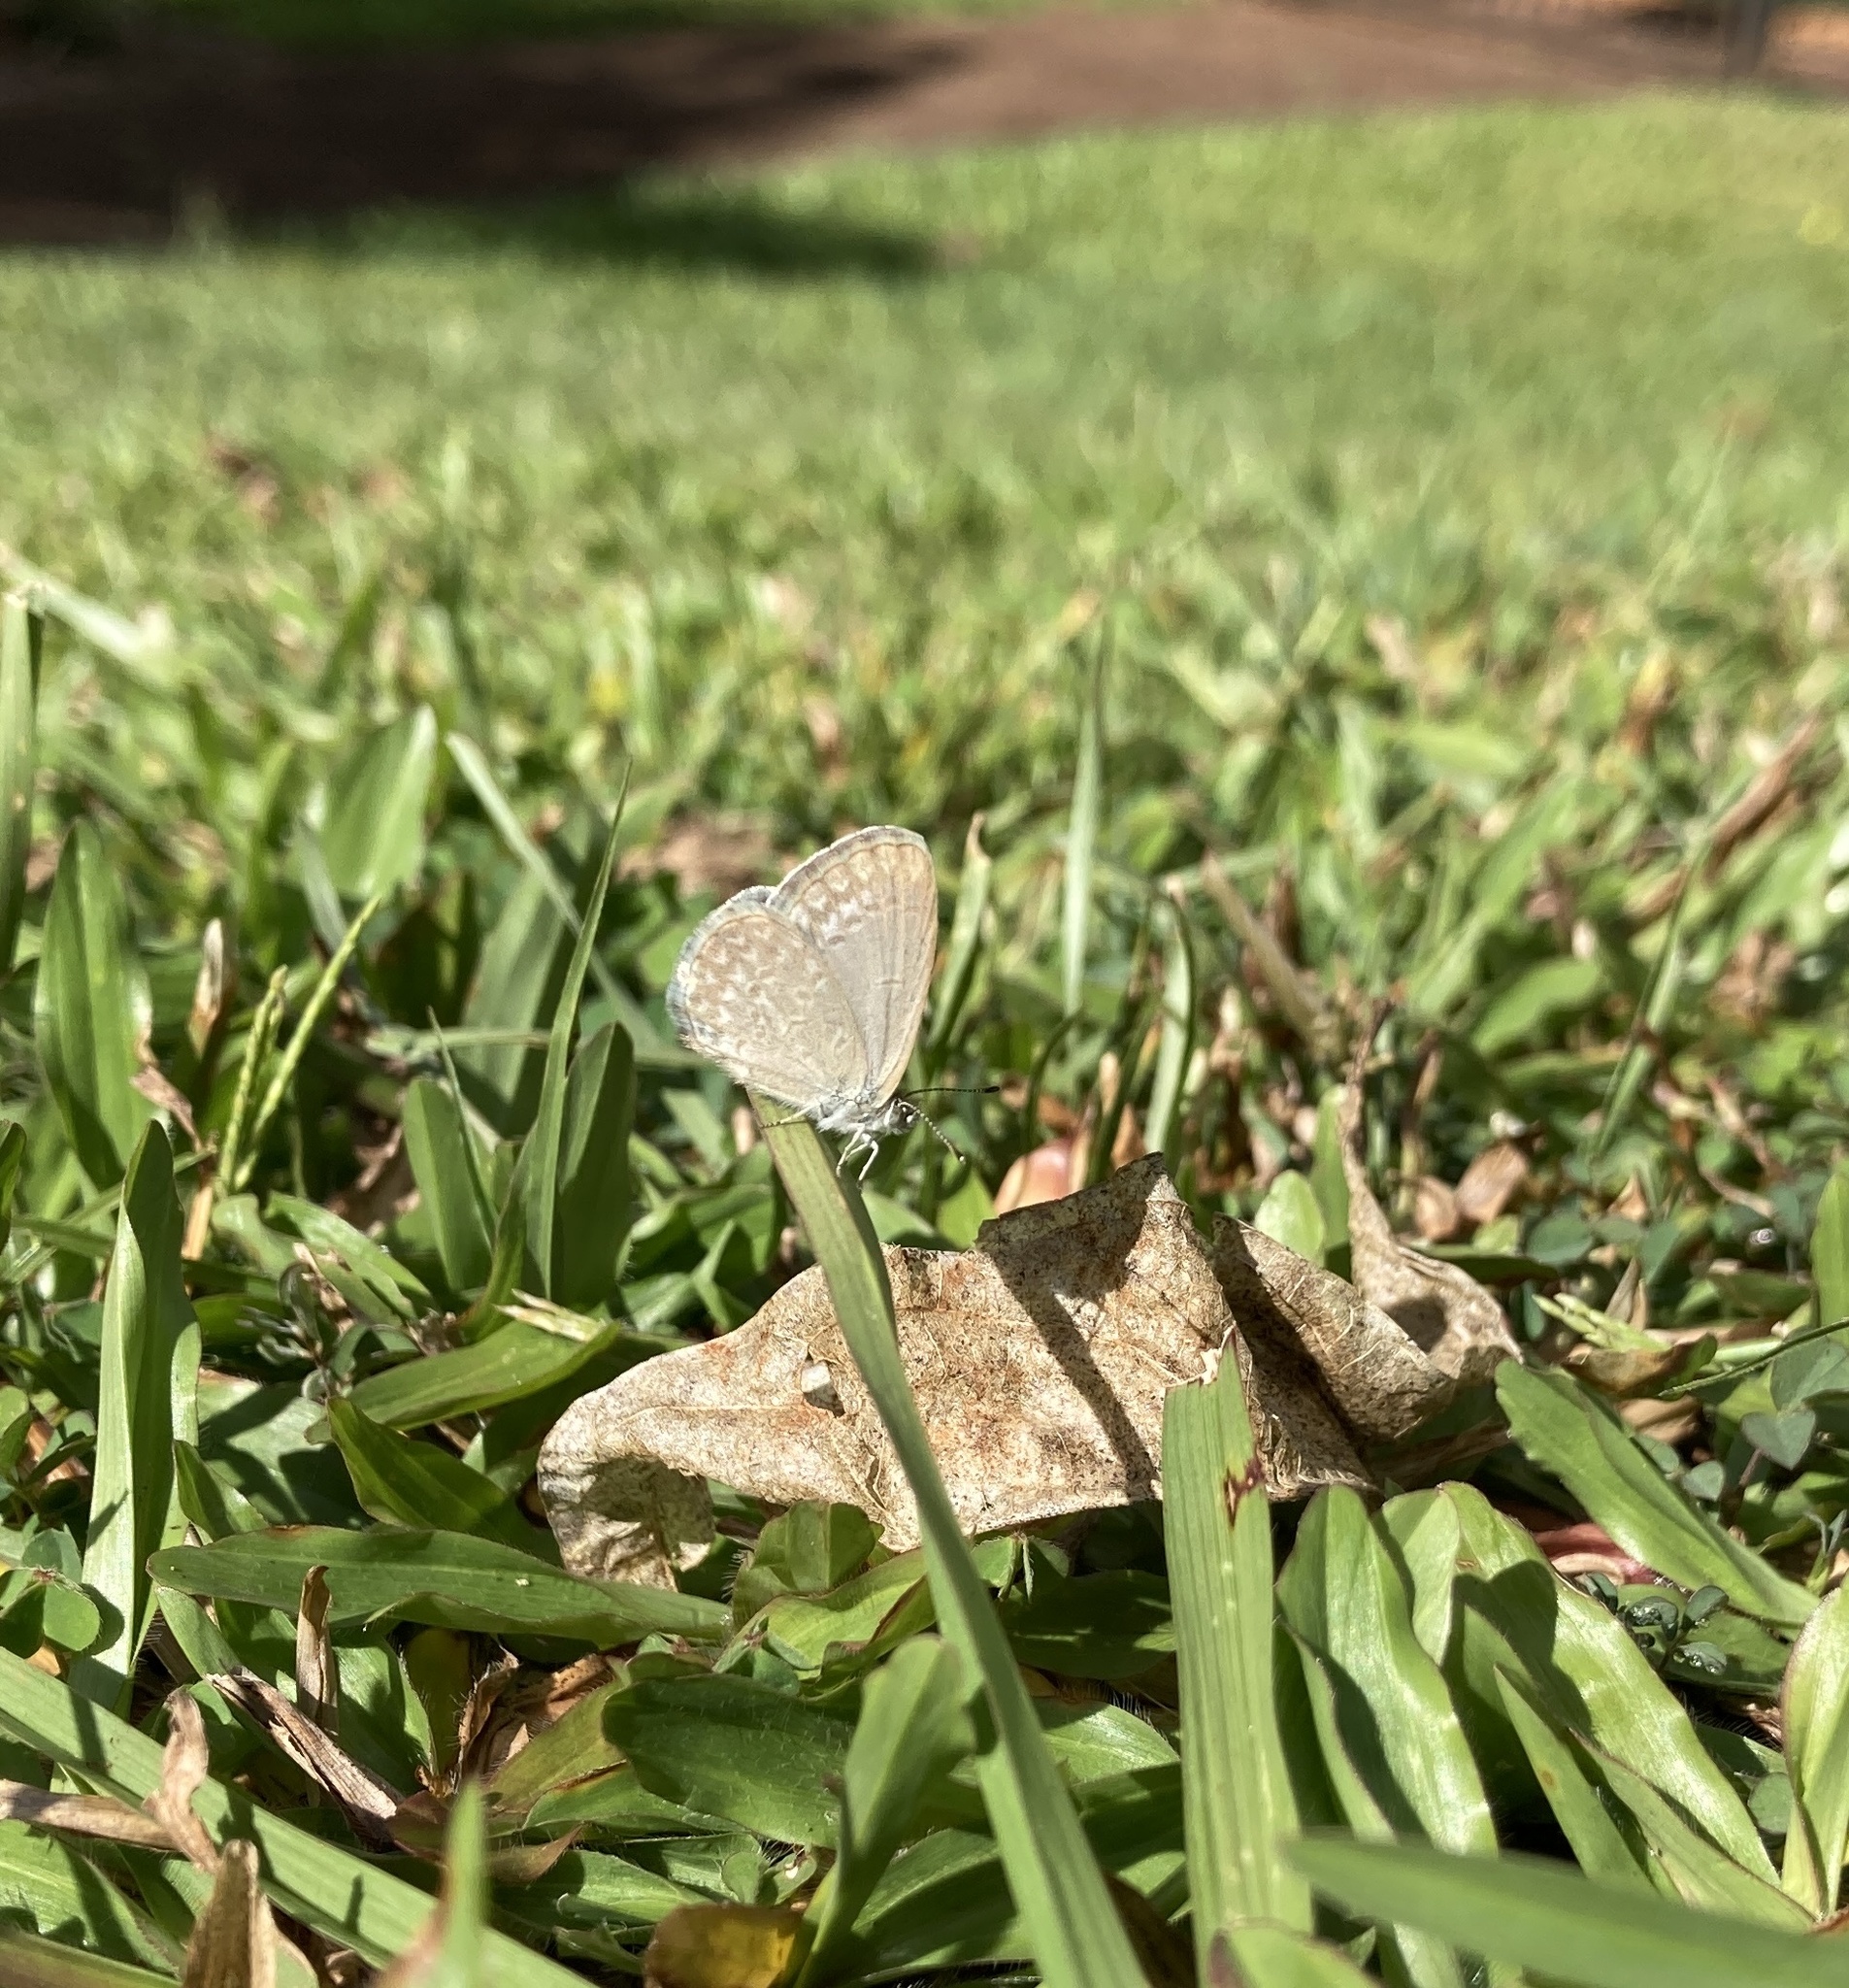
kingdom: Animalia
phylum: Arthropoda
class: Insecta
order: Lepidoptera
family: Lycaenidae
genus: Zizina
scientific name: Zizina otis
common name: Lesser grass blue
